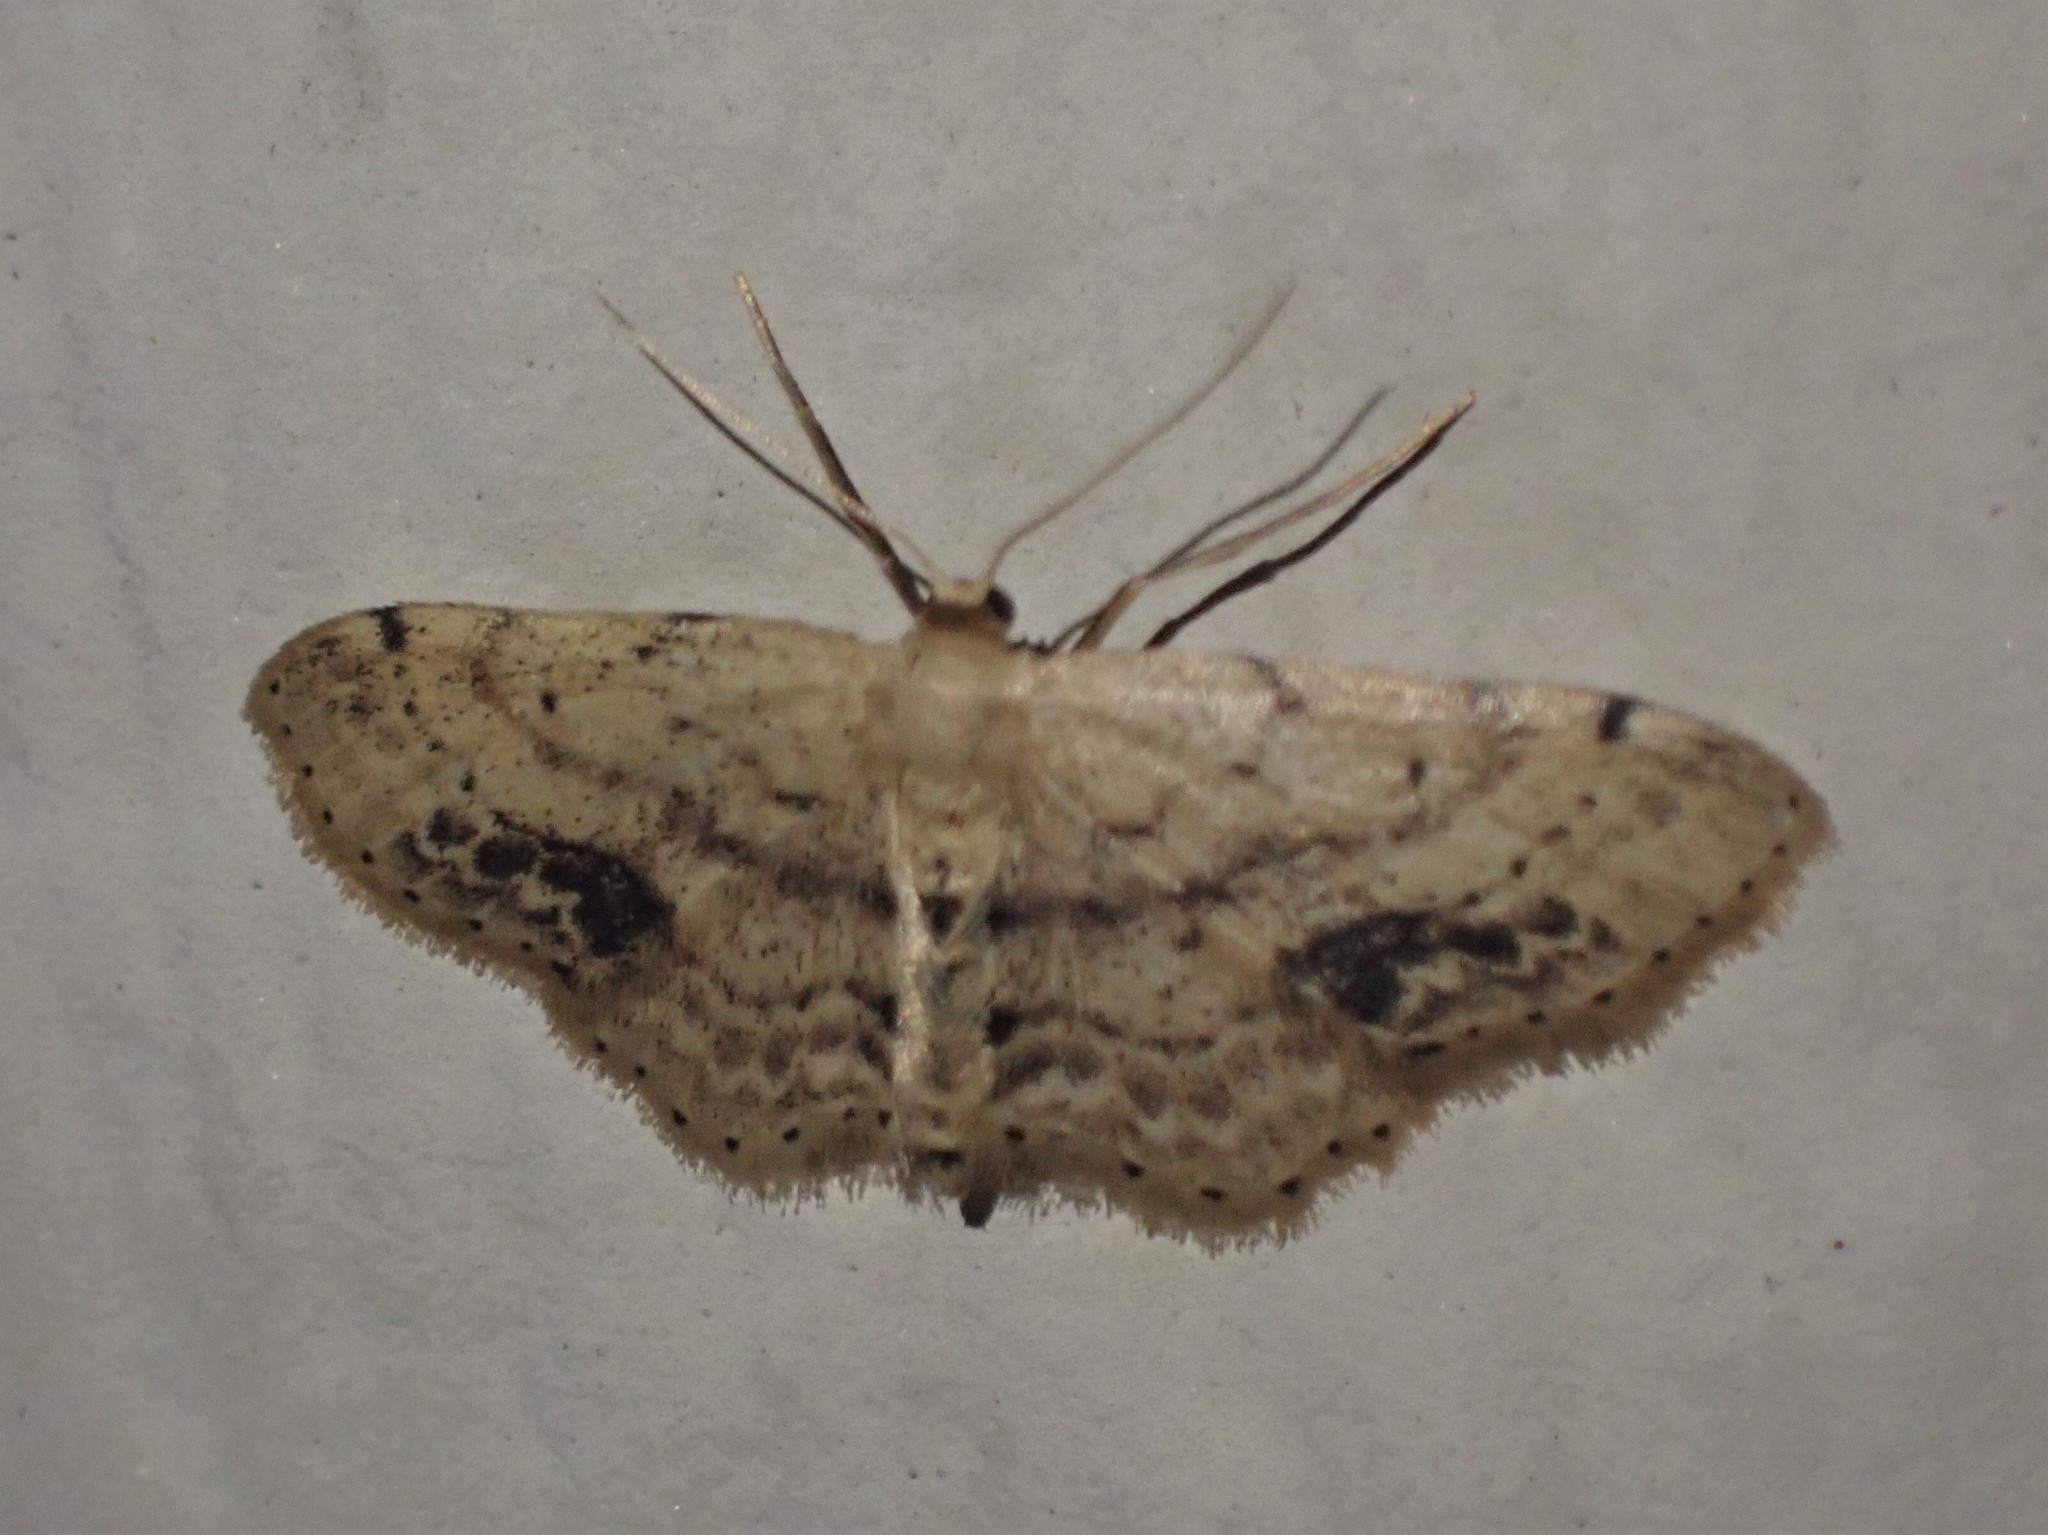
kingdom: Animalia
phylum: Arthropoda
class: Insecta
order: Lepidoptera
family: Geometridae
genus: Idaea
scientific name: Idaea dimidiata
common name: Single-dotted wave
